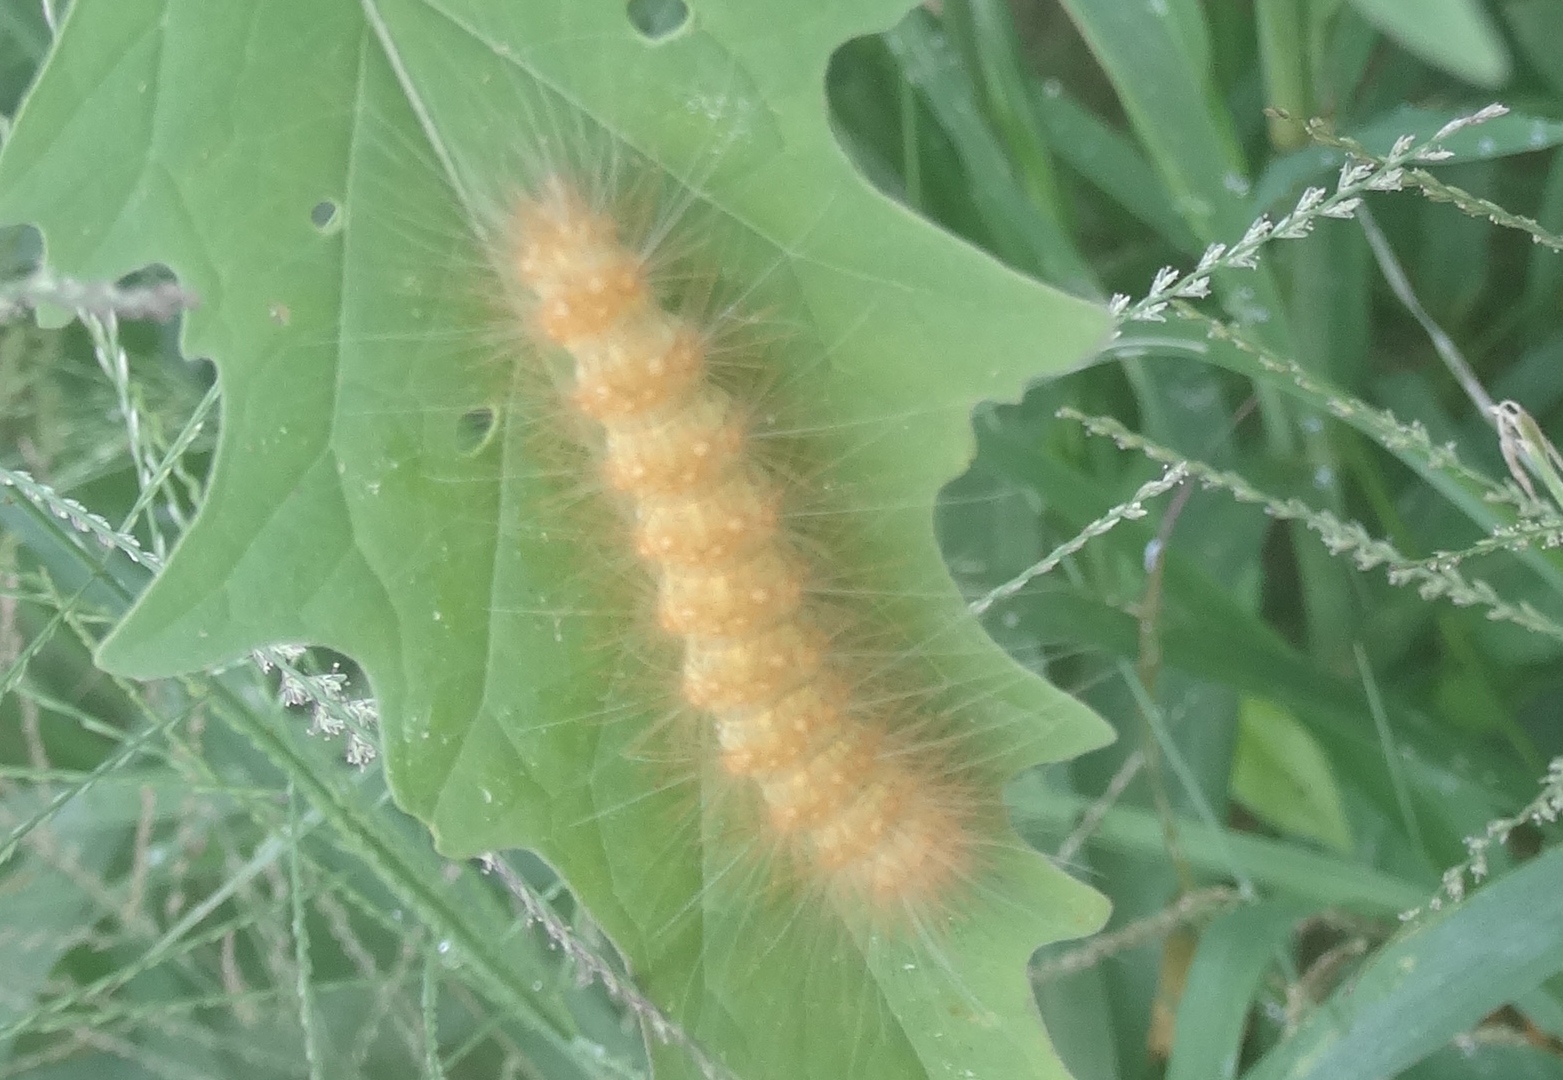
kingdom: Animalia
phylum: Arthropoda
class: Insecta
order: Lepidoptera
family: Erebidae
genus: Spilosoma
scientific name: Spilosoma
